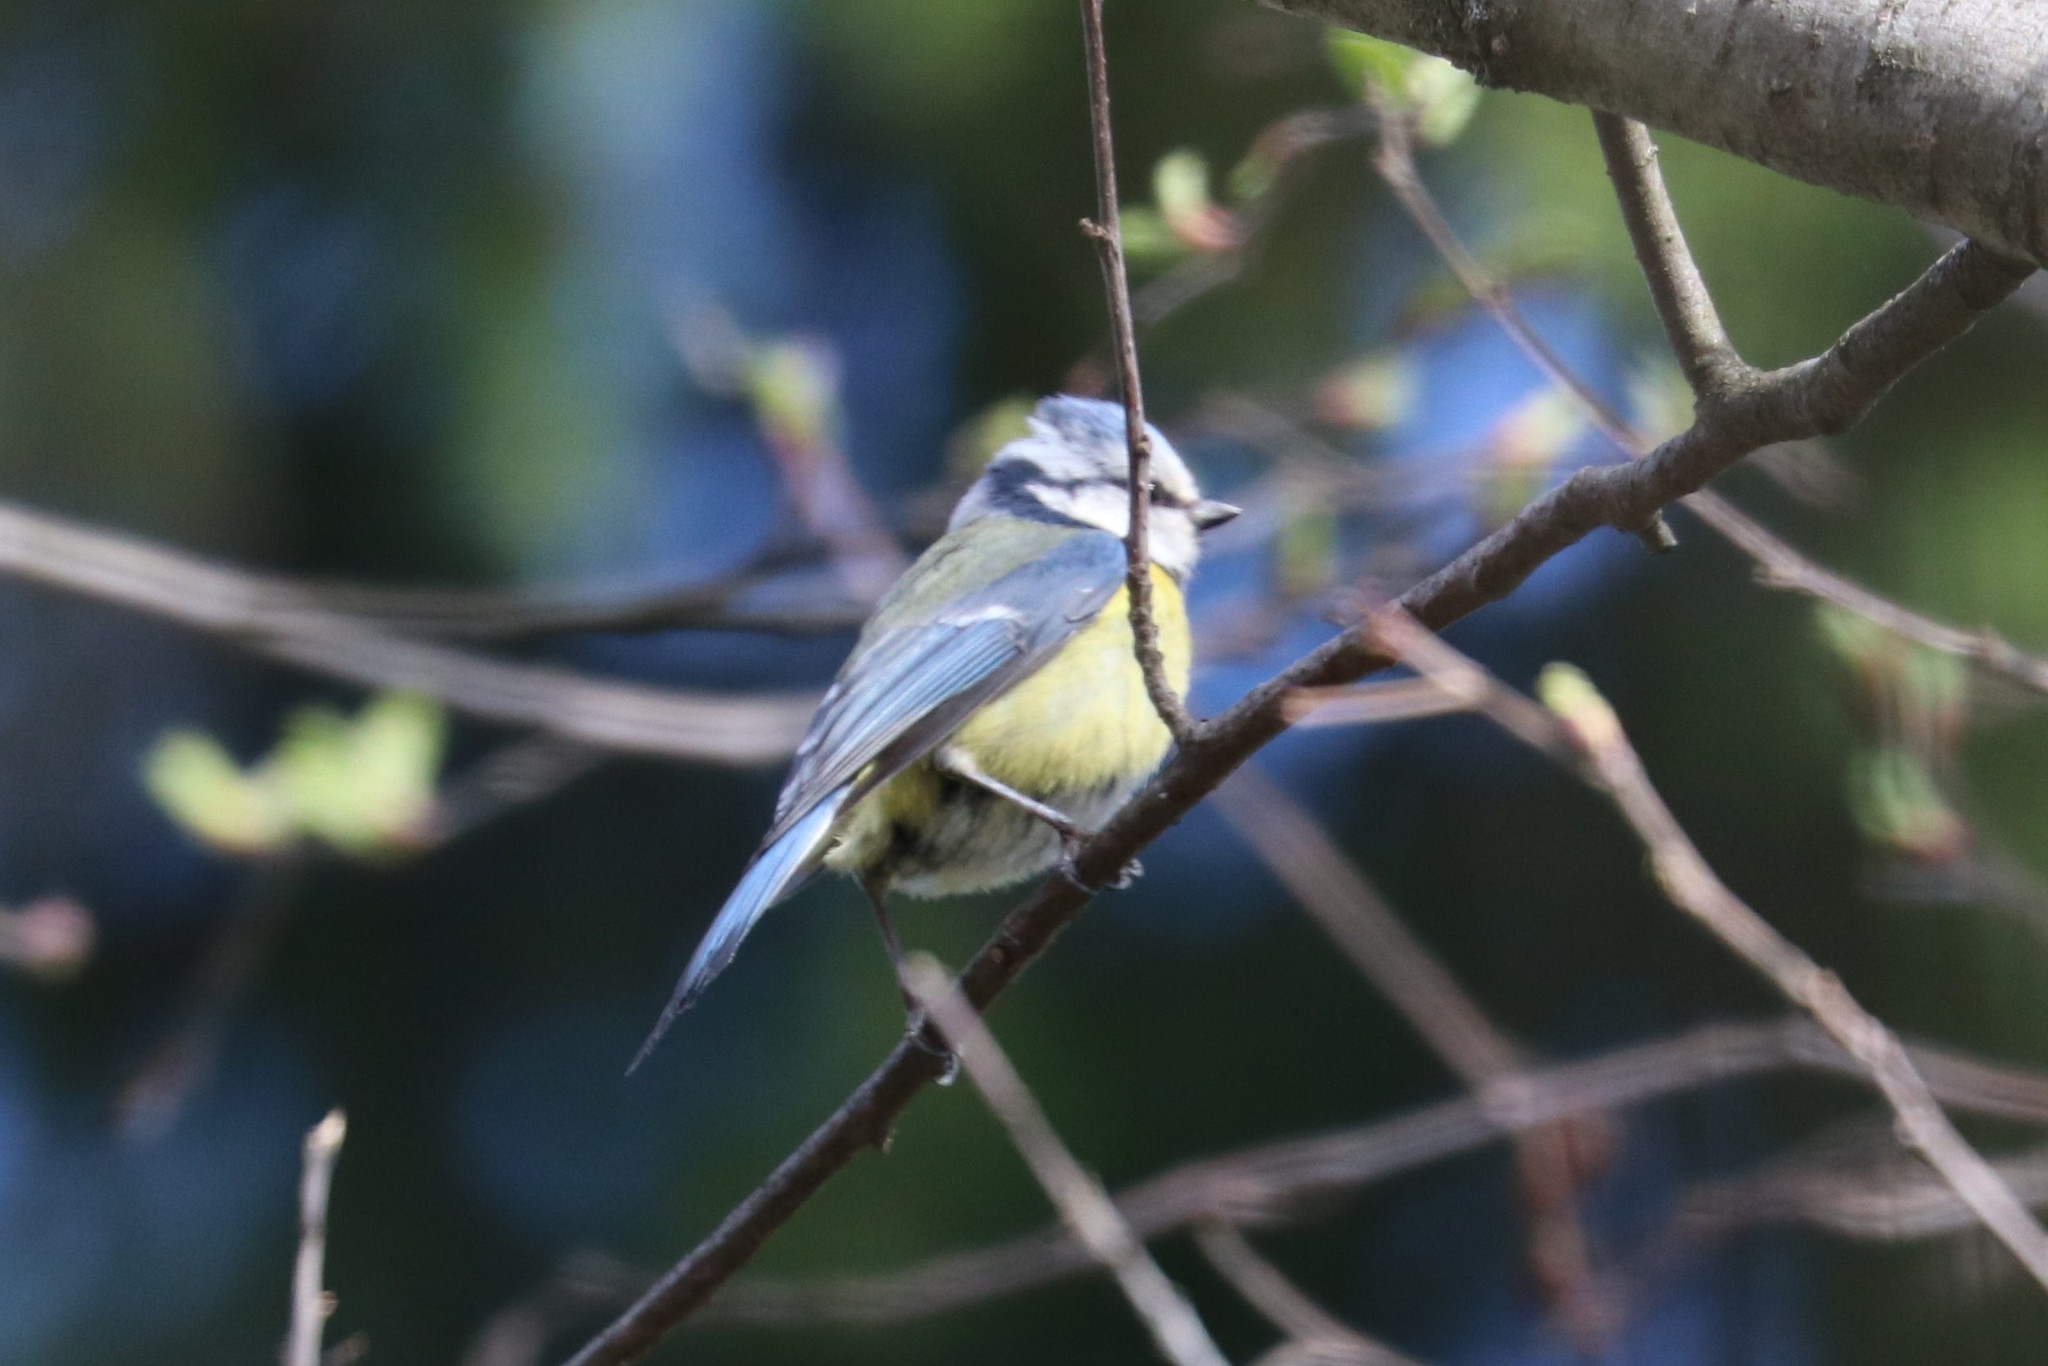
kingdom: Animalia
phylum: Chordata
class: Aves
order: Passeriformes
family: Paridae
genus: Cyanistes
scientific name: Cyanistes caeruleus
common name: Eurasian blue tit
